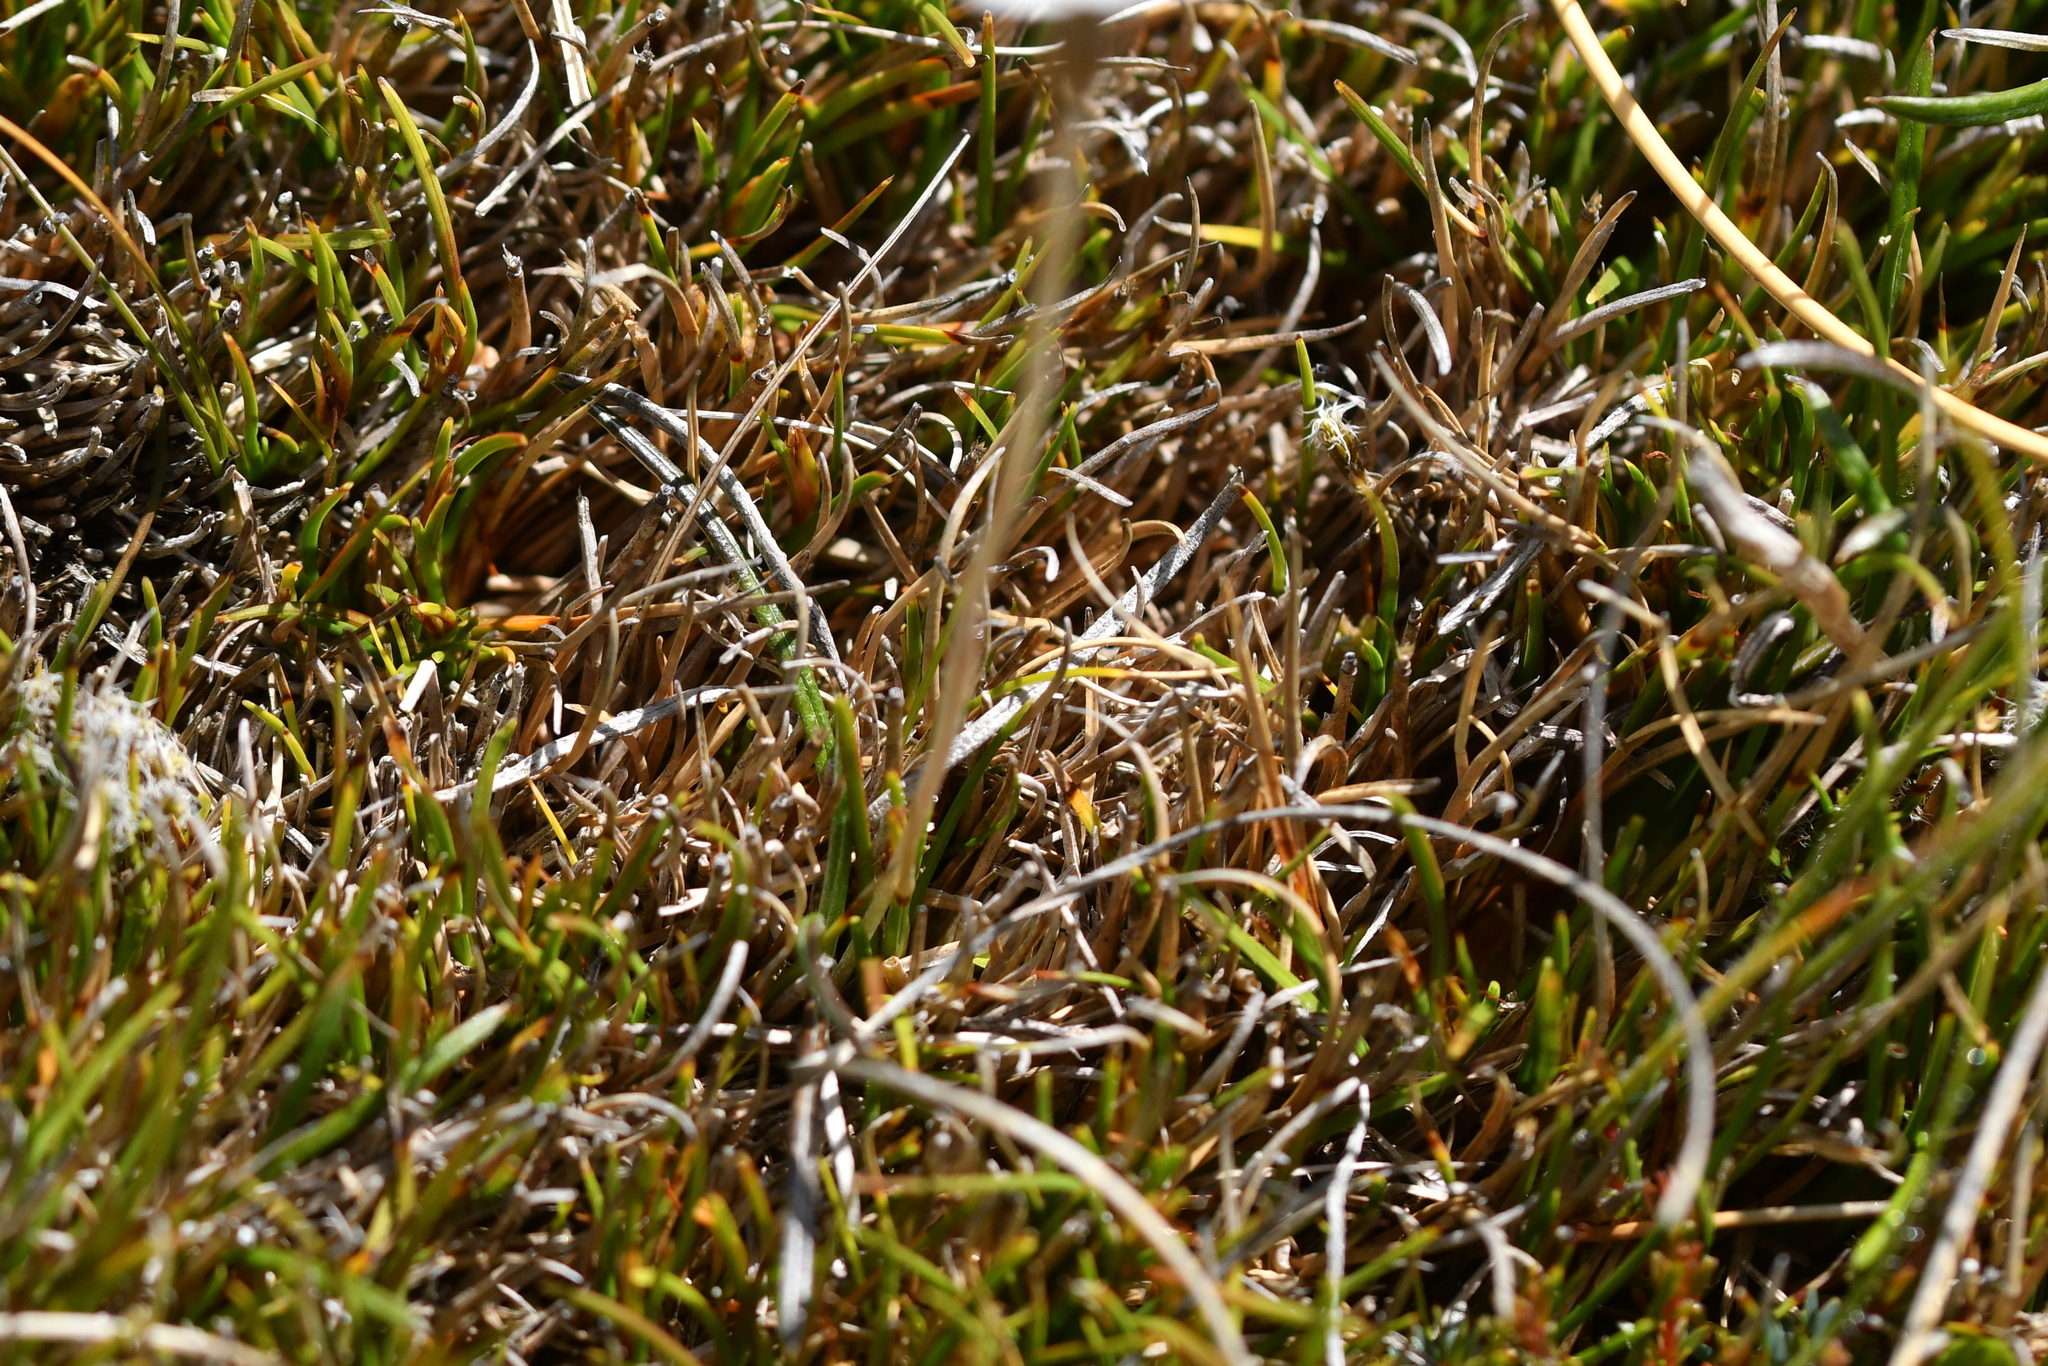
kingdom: Plantae
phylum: Tracheophyta
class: Magnoliopsida
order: Asterales
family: Asteraceae
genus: Celmisia
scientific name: Celmisia gracilenta
